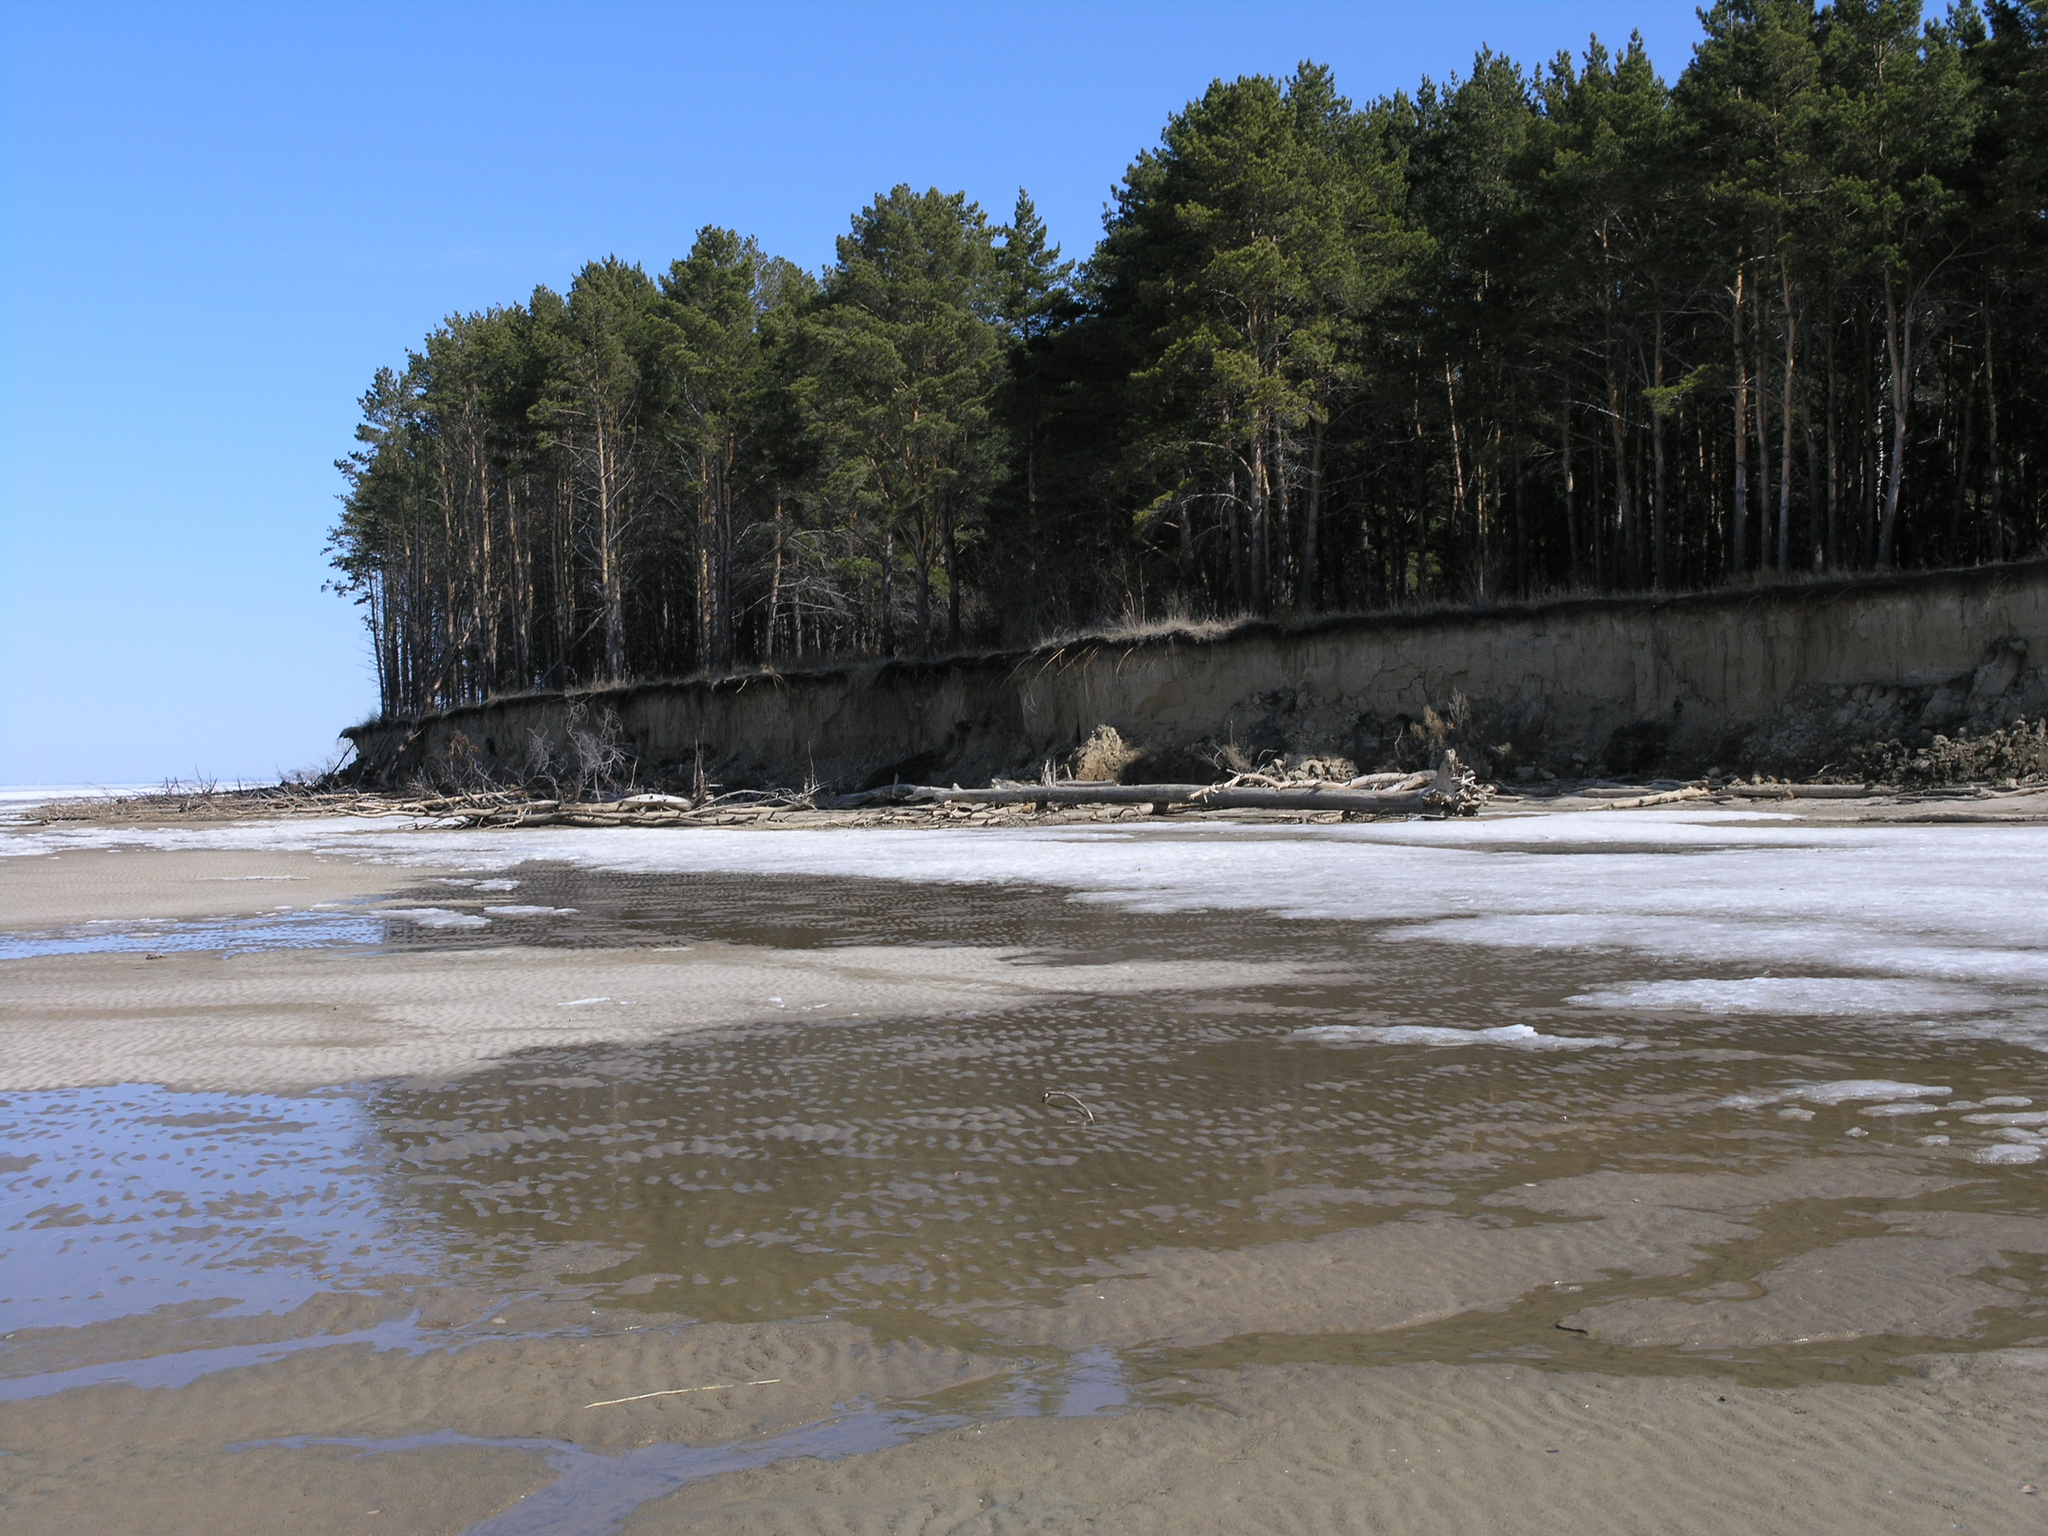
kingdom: Plantae
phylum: Tracheophyta
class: Pinopsida
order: Pinales
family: Pinaceae
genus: Pinus
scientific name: Pinus sylvestris
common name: Scots pine
